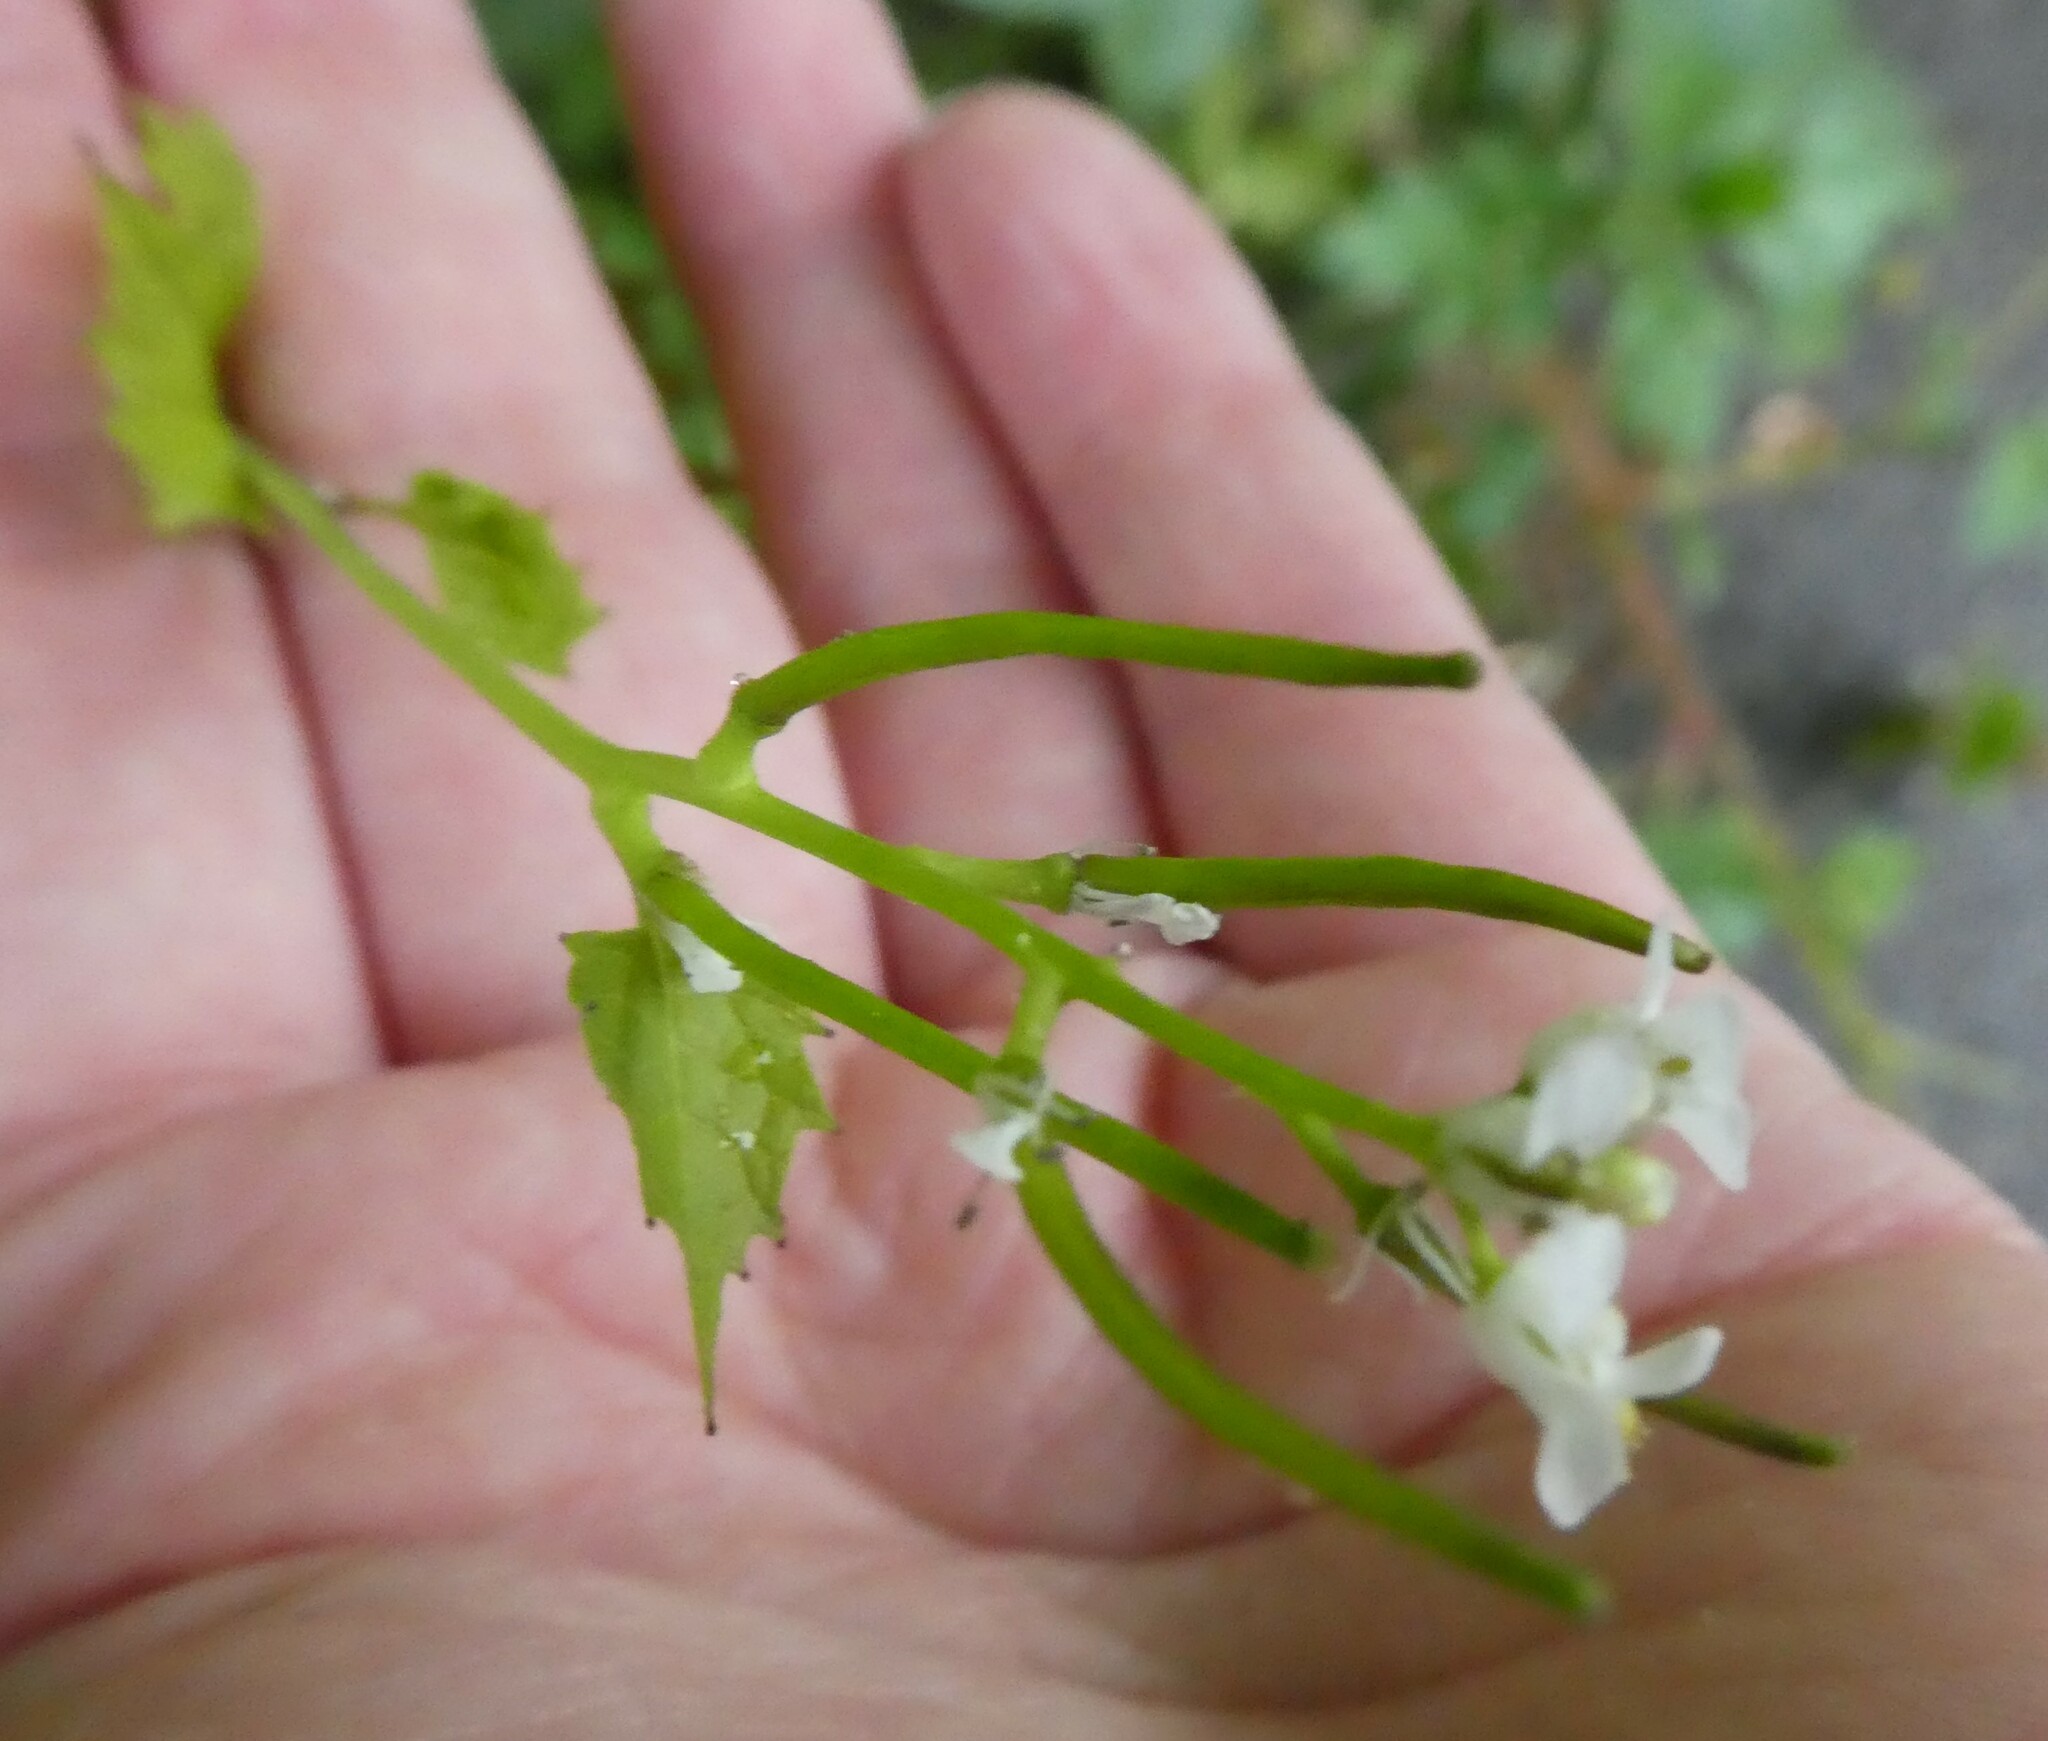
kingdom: Plantae
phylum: Tracheophyta
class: Magnoliopsida
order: Brassicales
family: Brassicaceae
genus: Alliaria
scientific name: Alliaria petiolata
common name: Garlic mustard
